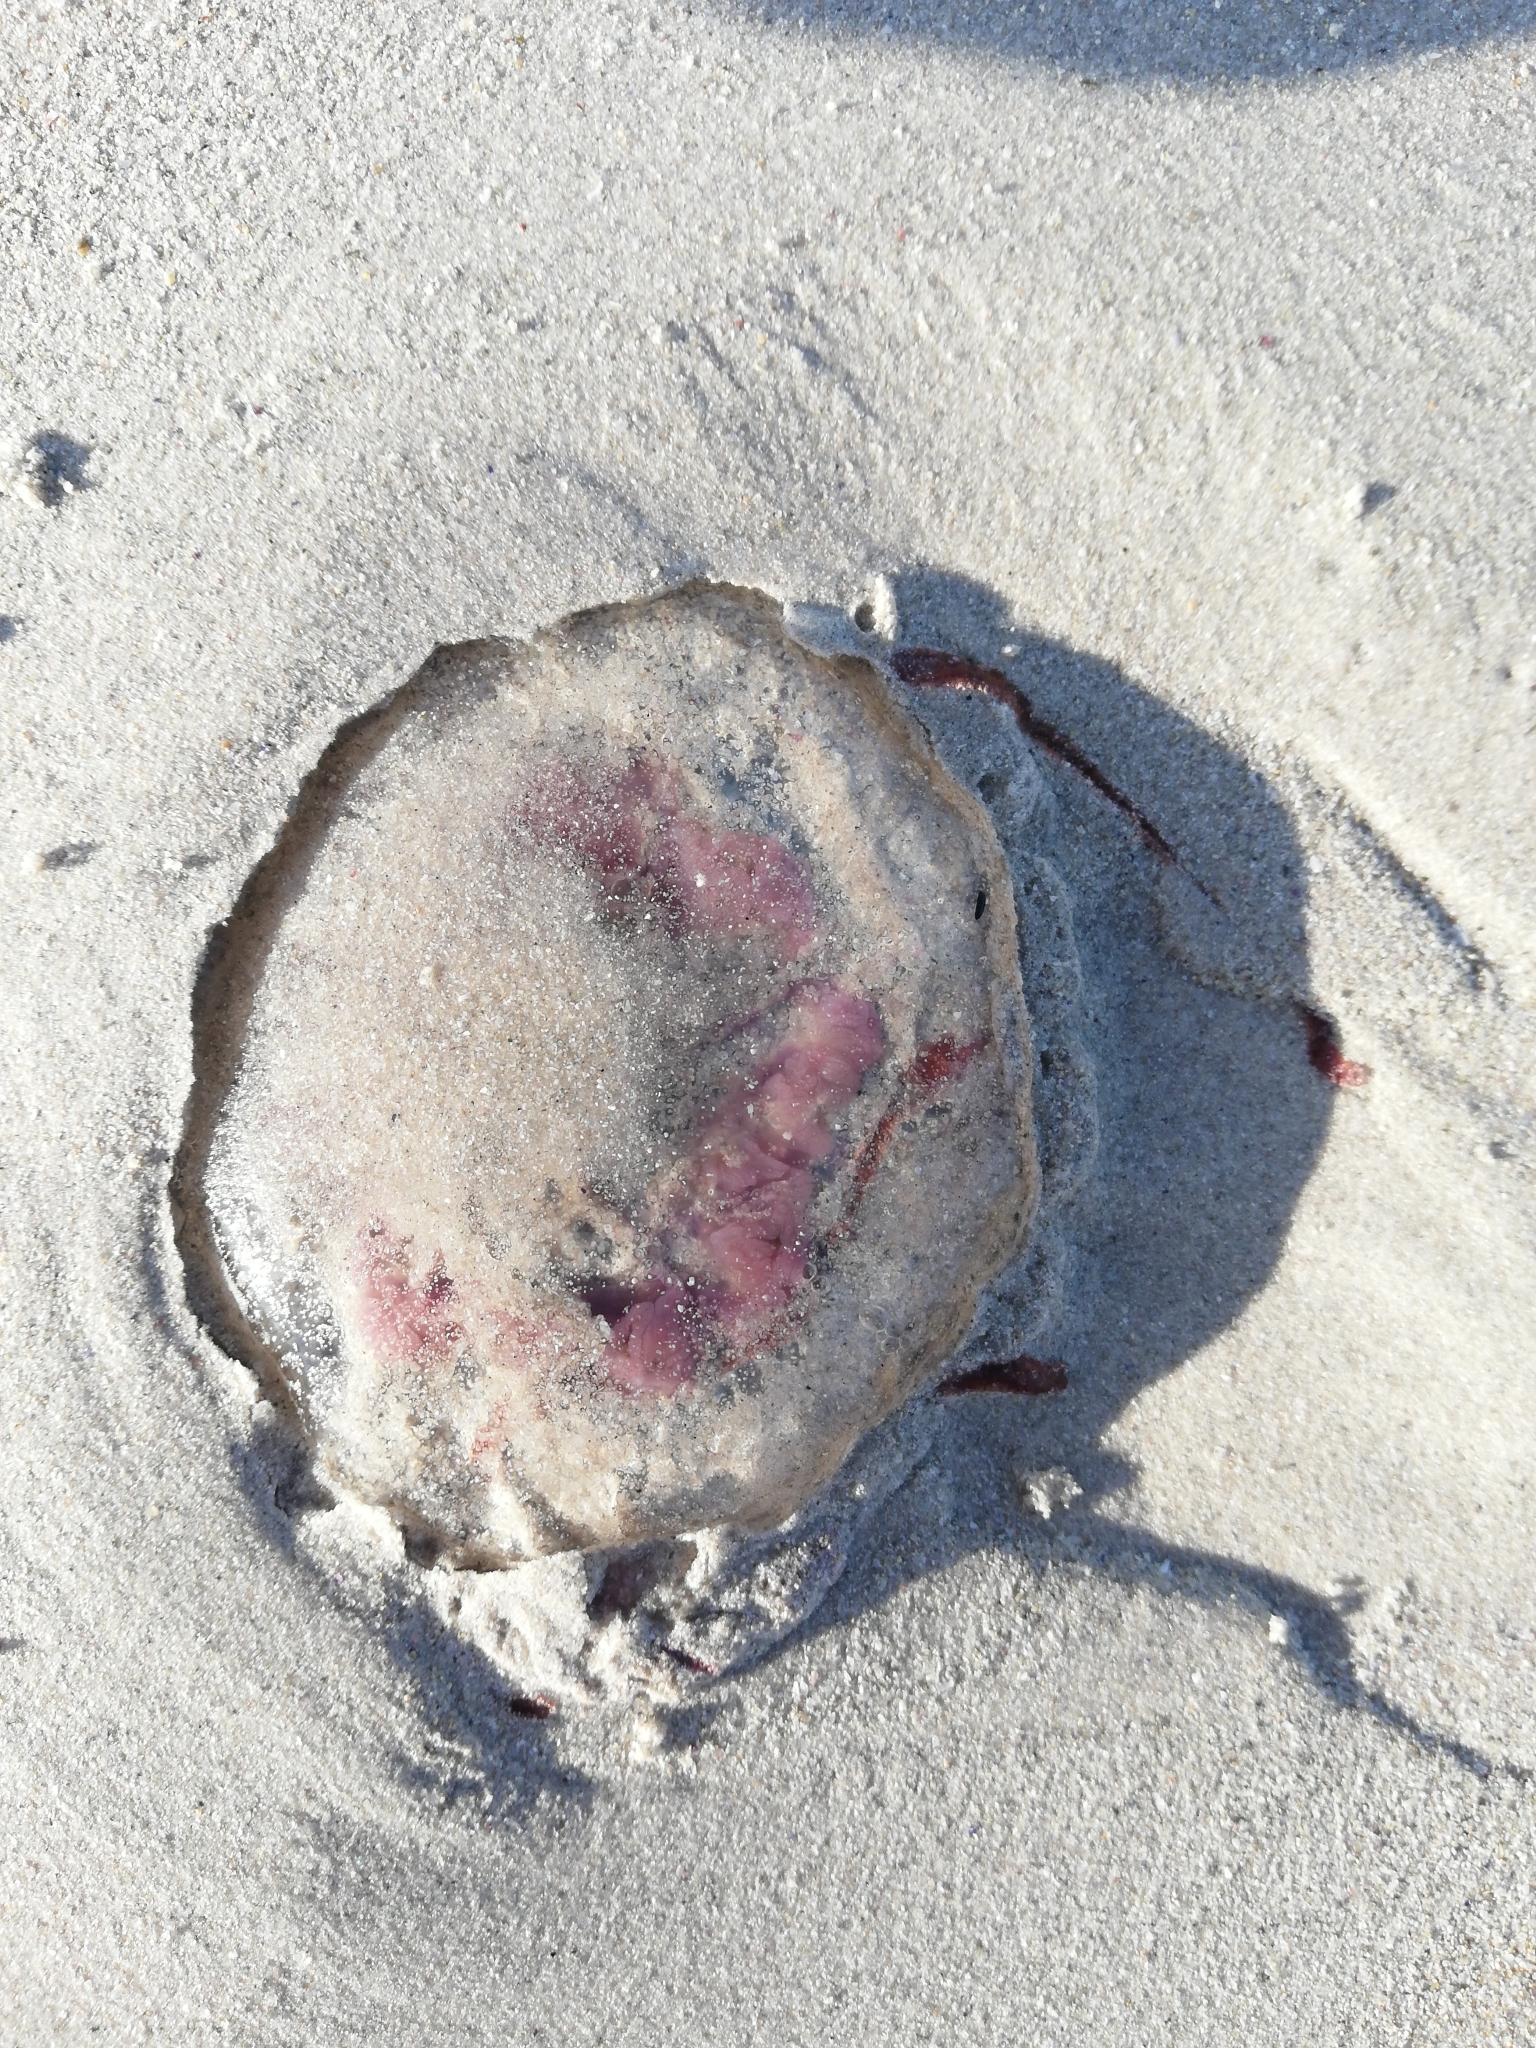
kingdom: Animalia
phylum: Cnidaria
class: Scyphozoa
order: Semaeostomeae
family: Pelagiidae
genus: Pelagia
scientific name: Pelagia noctiluca
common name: Mauve stinger
